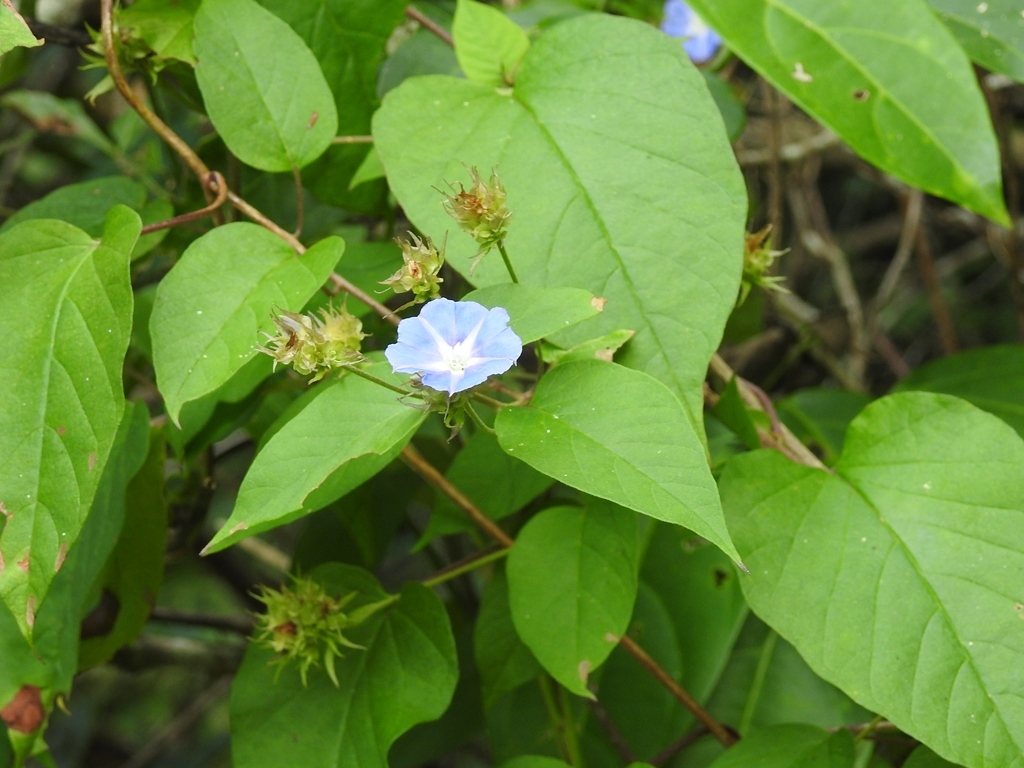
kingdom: Plantae
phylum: Tracheophyta
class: Magnoliopsida
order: Solanales
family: Convolvulaceae
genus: Jacquemontia
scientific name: Jacquemontia pentanthos
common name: Skyblue clustervine
